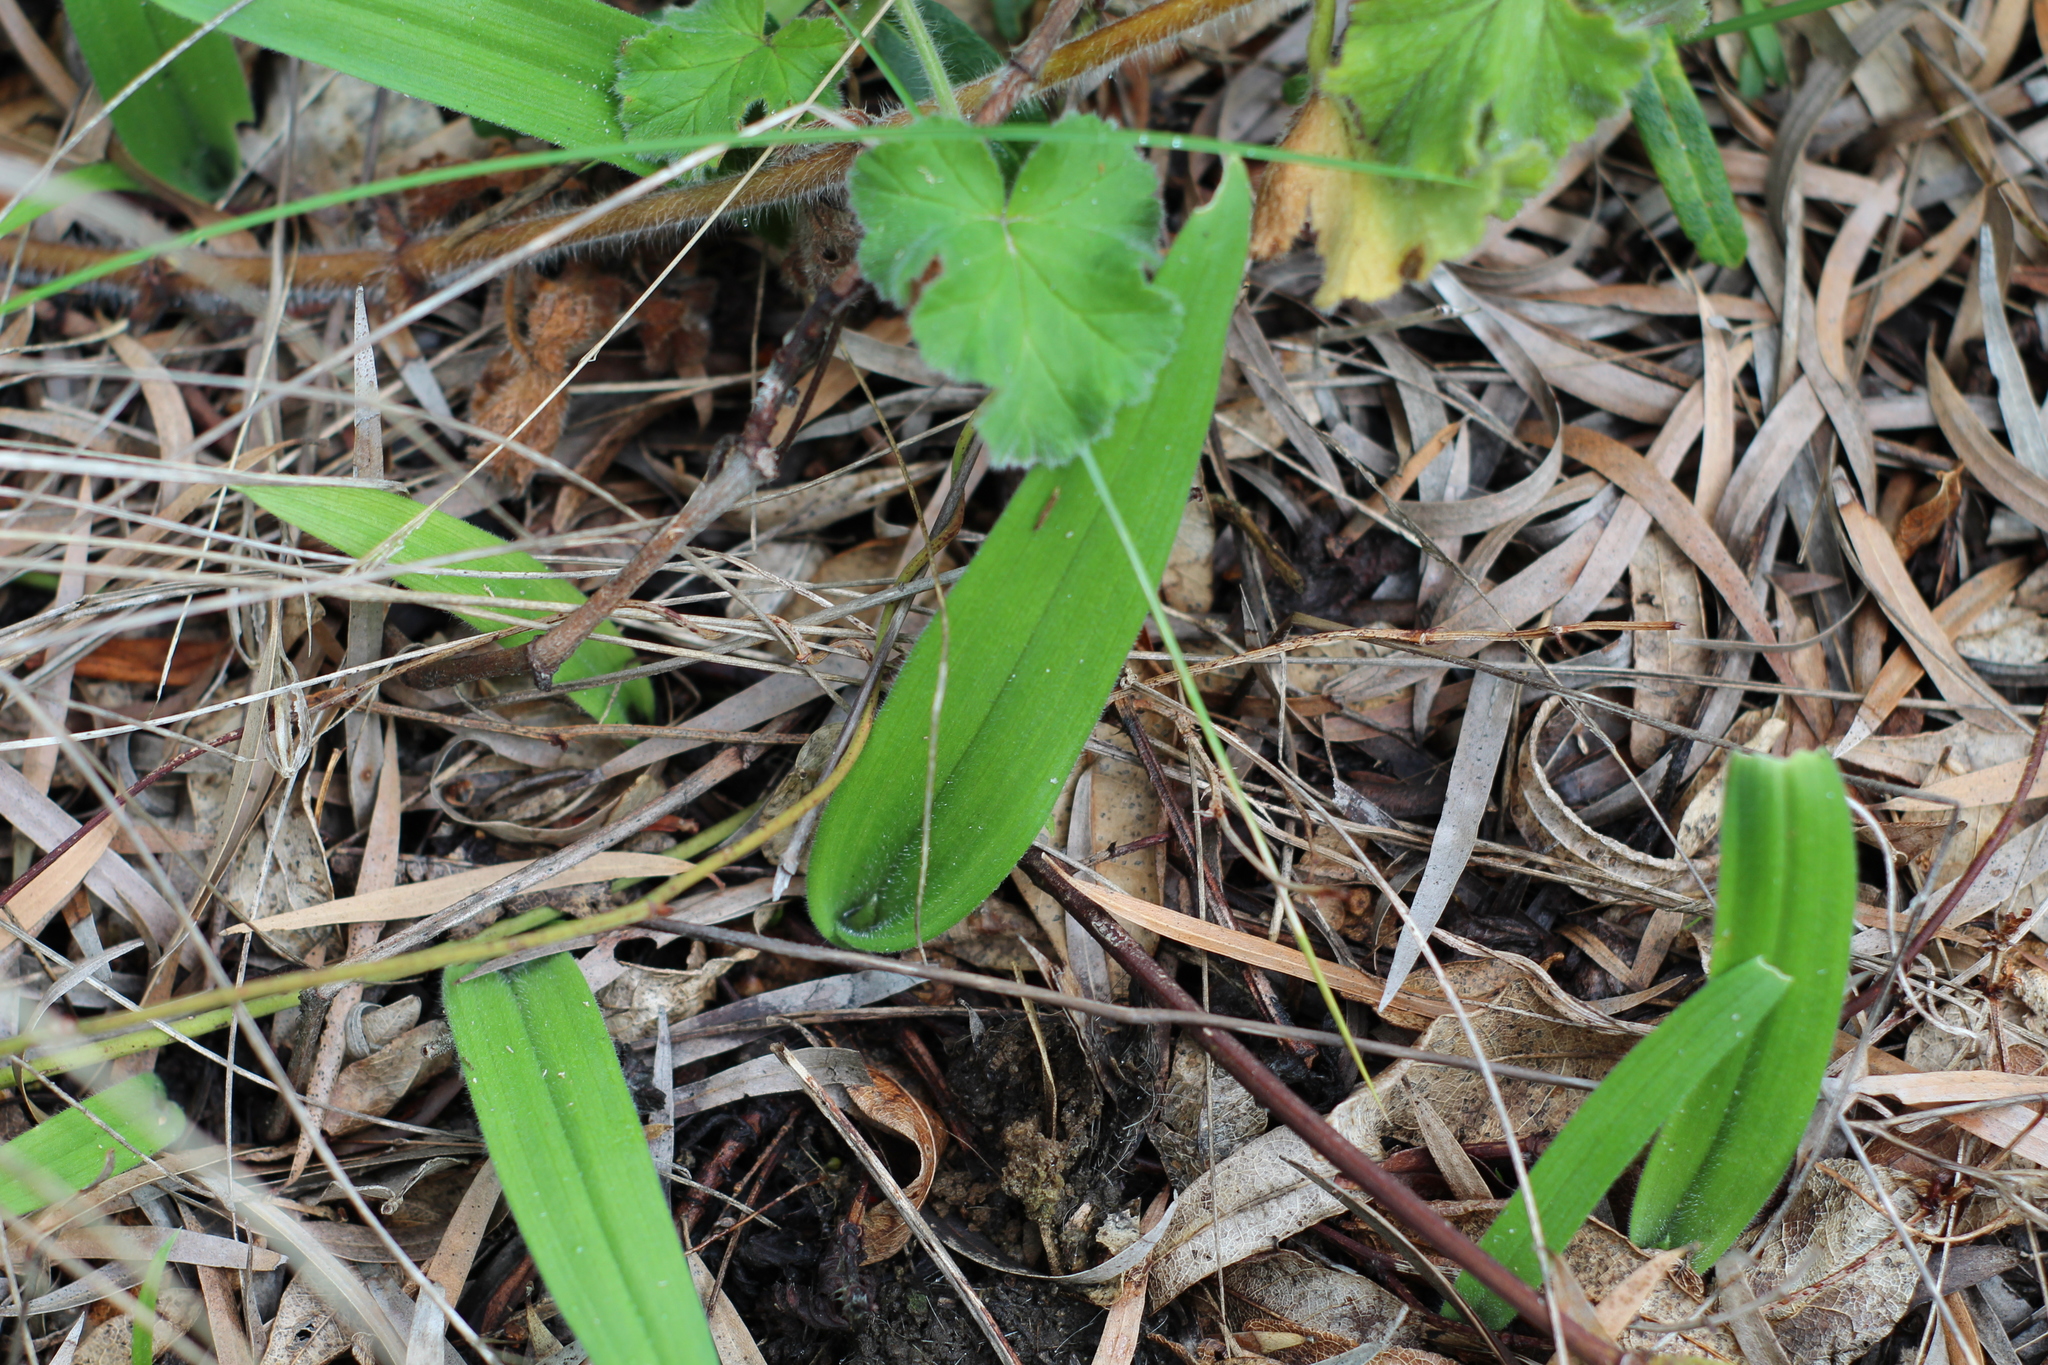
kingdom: Plantae
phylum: Tracheophyta
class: Liliopsida
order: Asparagales
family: Orchidaceae
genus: Caladenia
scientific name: Caladenia latifolia
